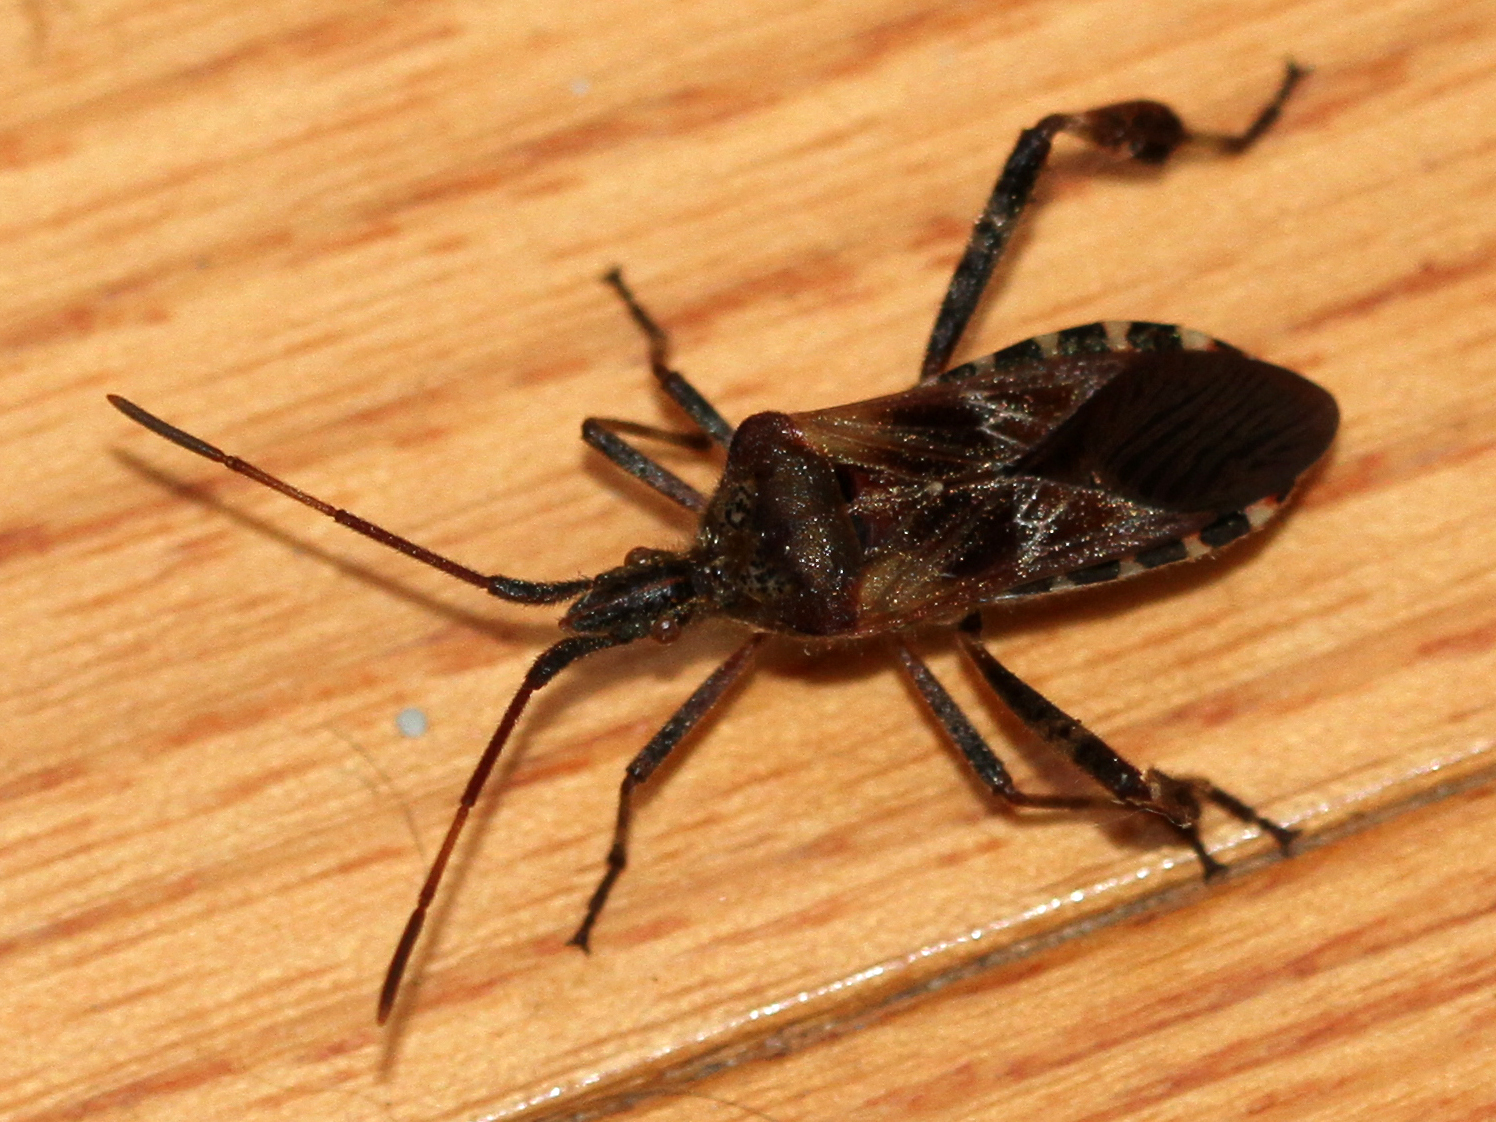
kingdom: Animalia
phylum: Arthropoda
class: Insecta
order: Hemiptera
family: Coreidae
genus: Leptoglossus
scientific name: Leptoglossus occidentalis
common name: Western conifer-seed bug
